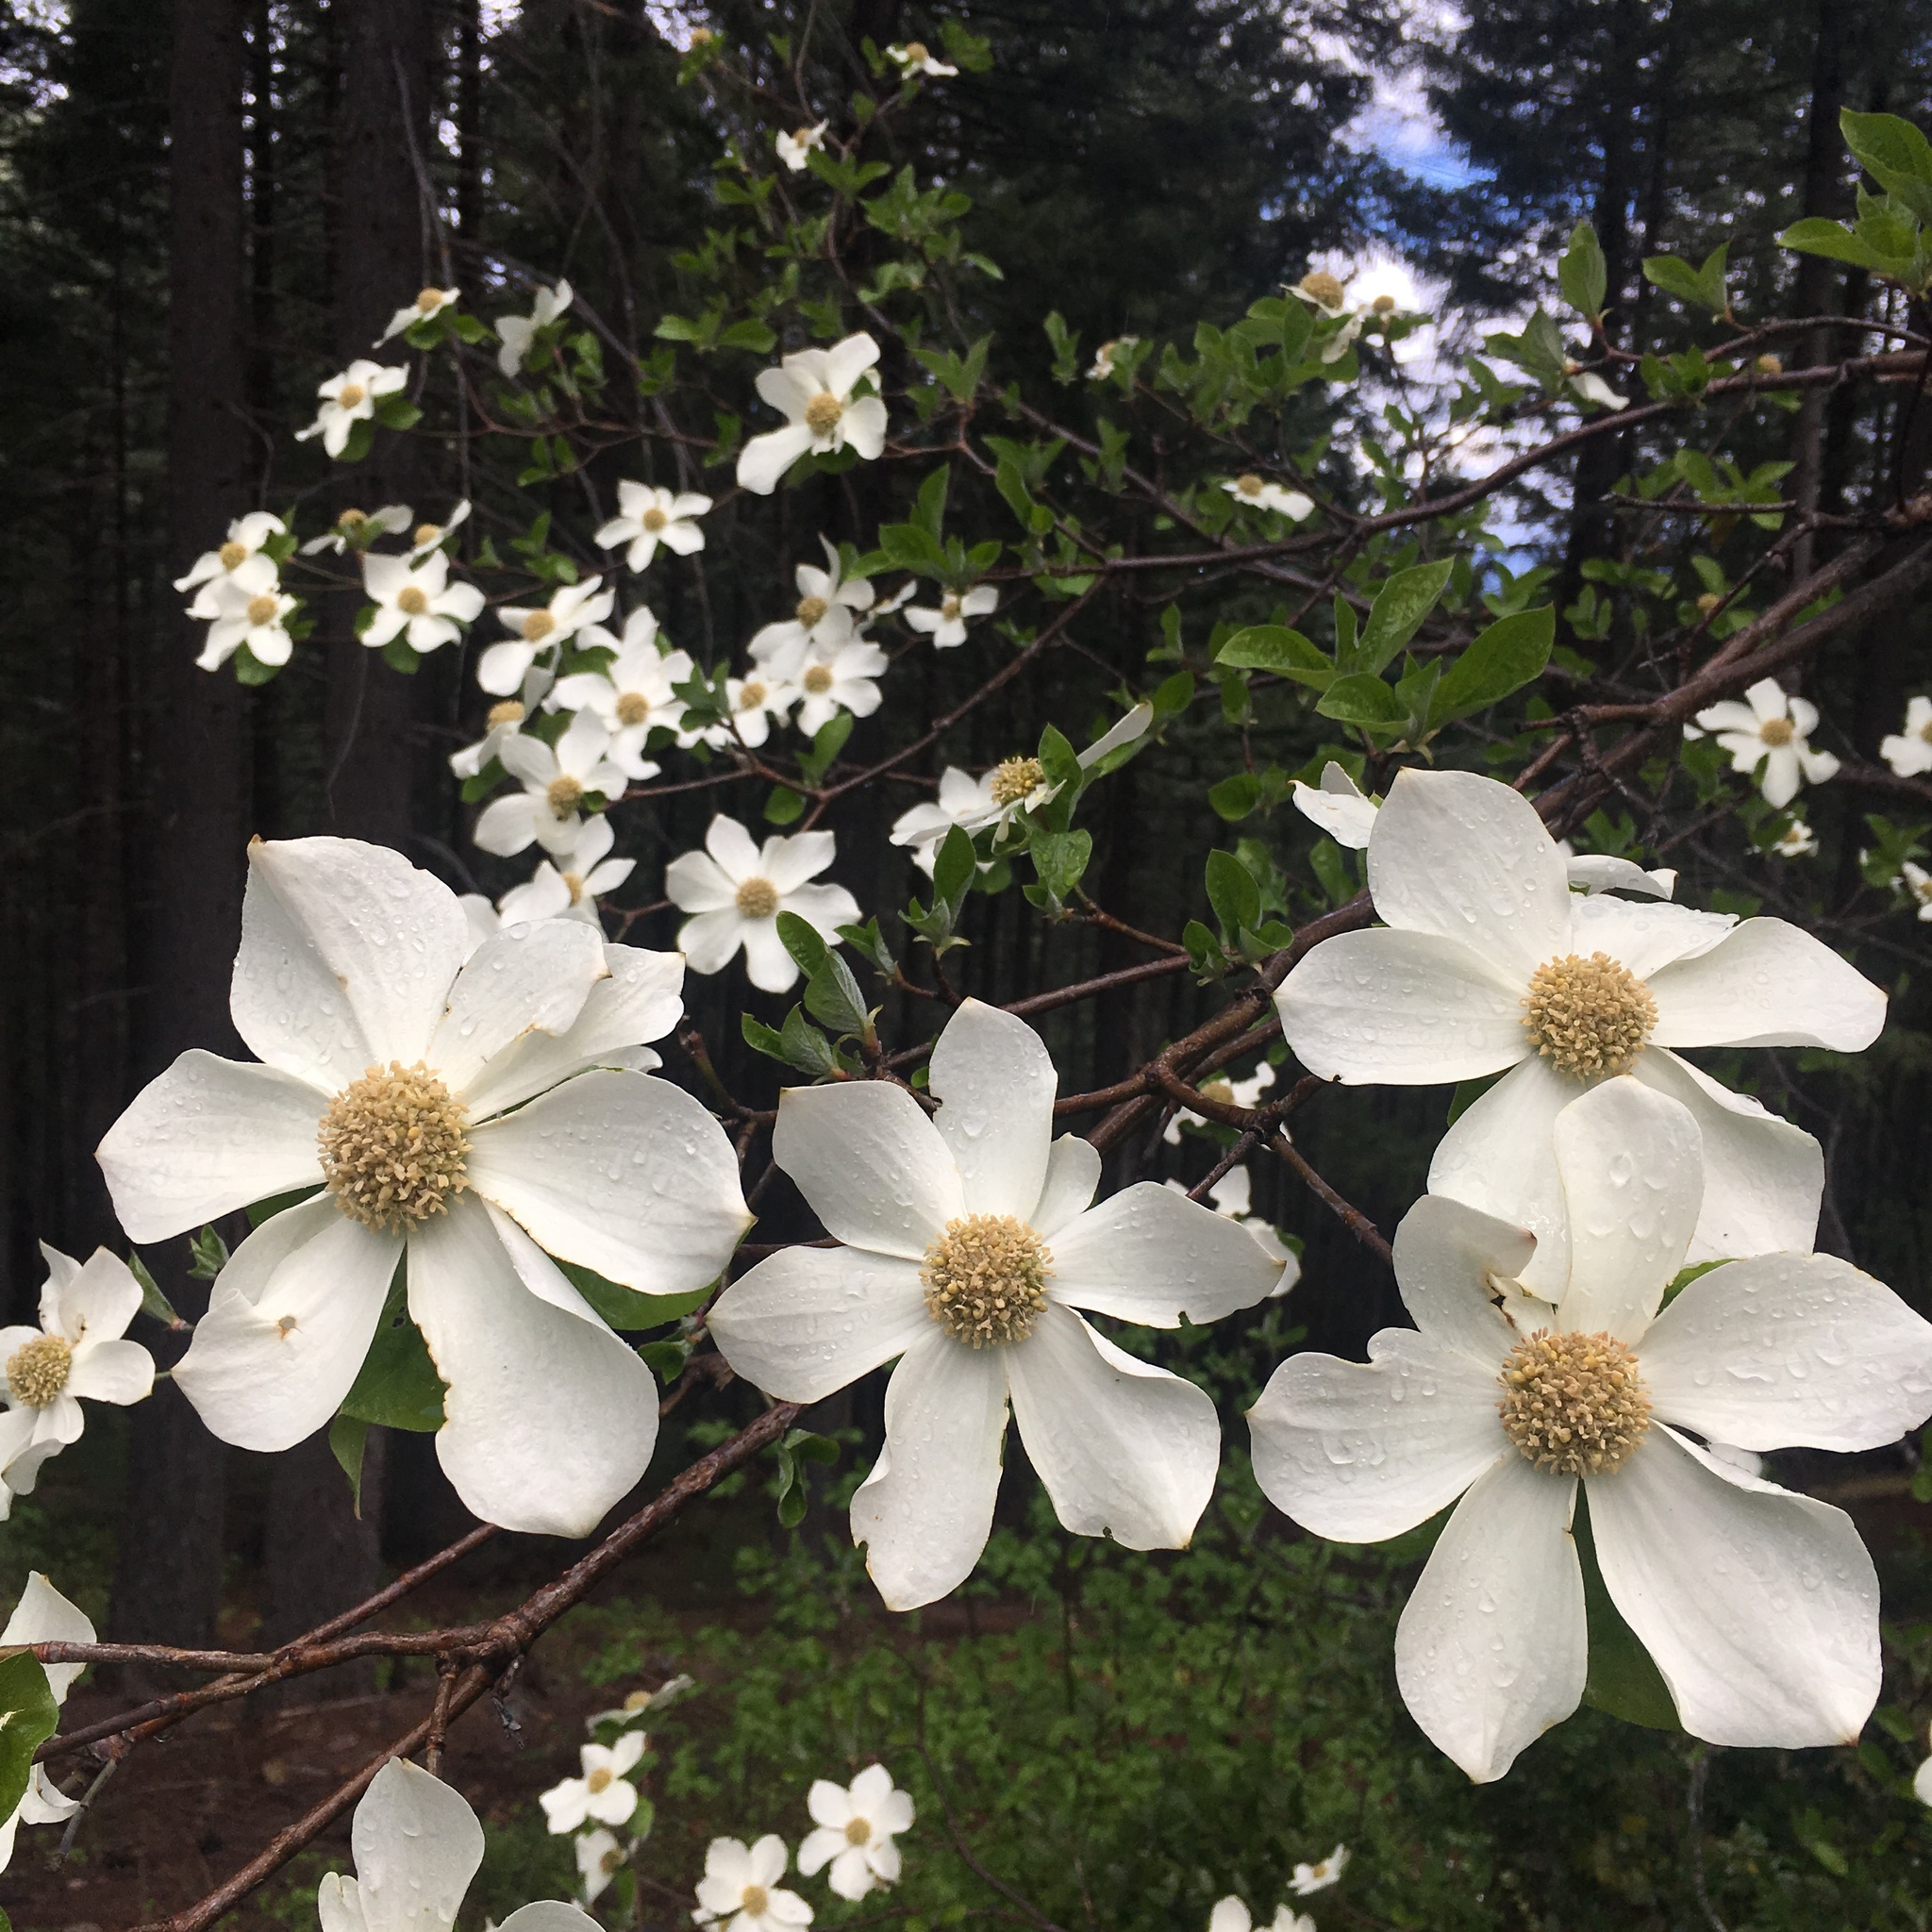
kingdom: Plantae
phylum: Tracheophyta
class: Magnoliopsida
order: Cornales
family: Cornaceae
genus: Cornus
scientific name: Cornus nuttallii
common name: Pacific dogwood
